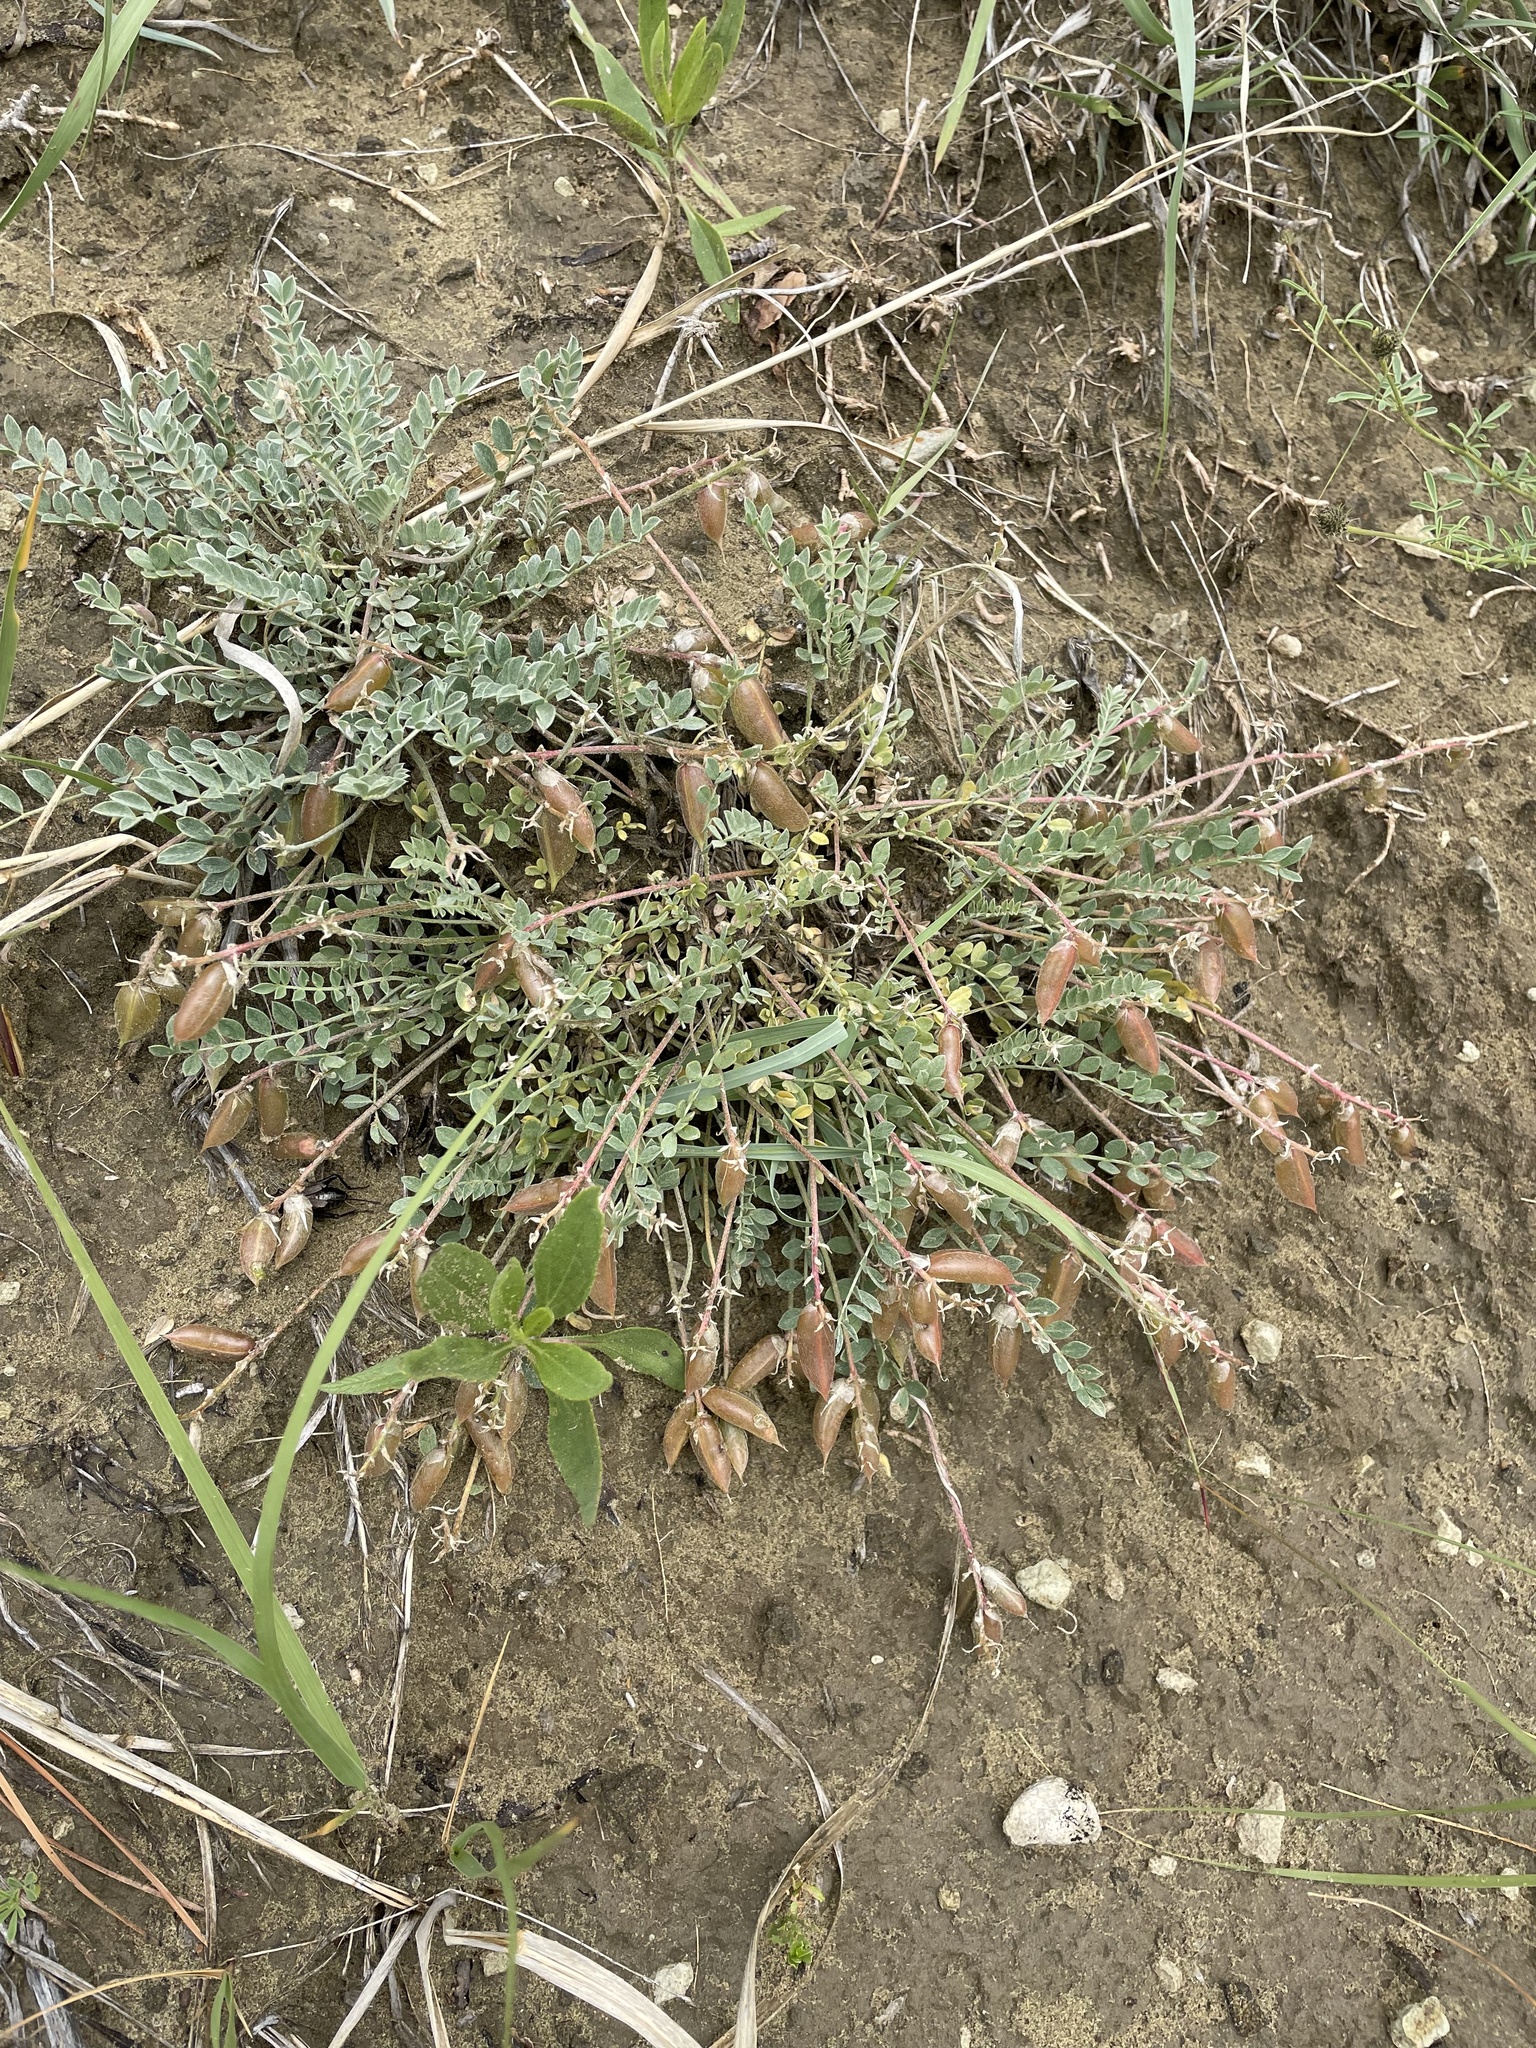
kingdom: Plantae
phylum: Tracheophyta
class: Magnoliopsida
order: Fabales
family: Fabaceae
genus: Astragalus
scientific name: Astragalus missouriensis
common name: Missouri milk-vetch
